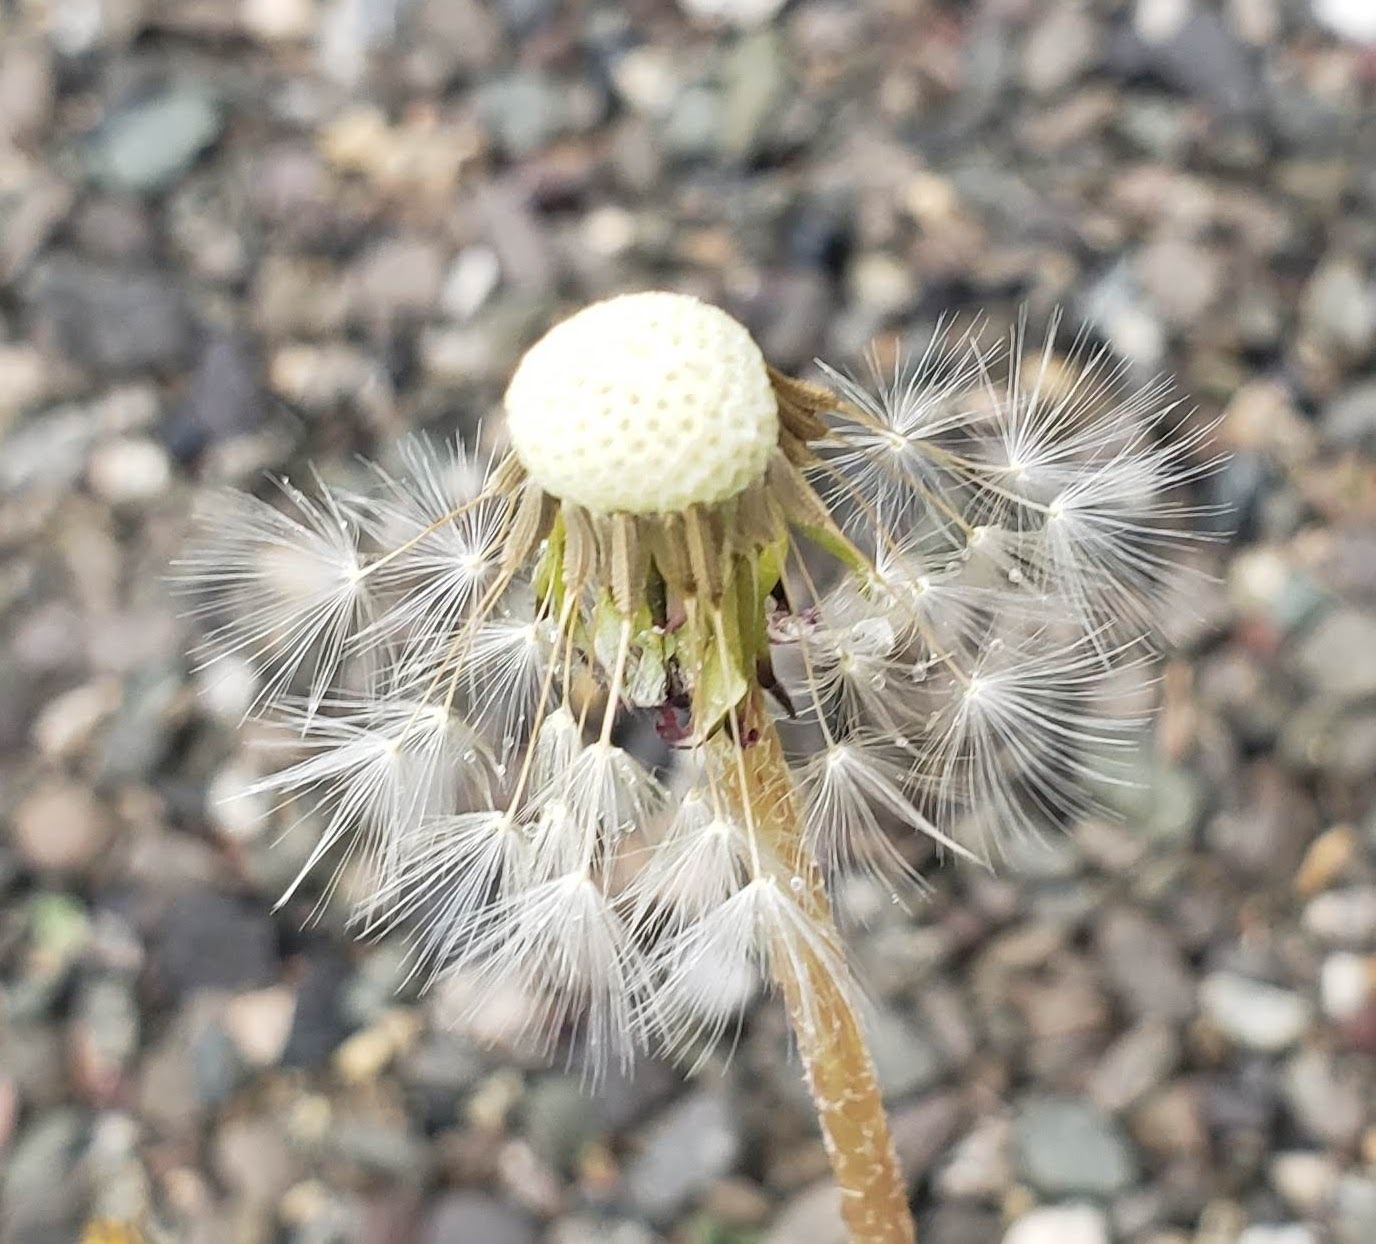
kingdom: Plantae
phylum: Tracheophyta
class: Magnoliopsida
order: Asterales
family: Asteraceae
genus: Taraxacum
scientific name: Taraxacum officinale
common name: Common dandelion
